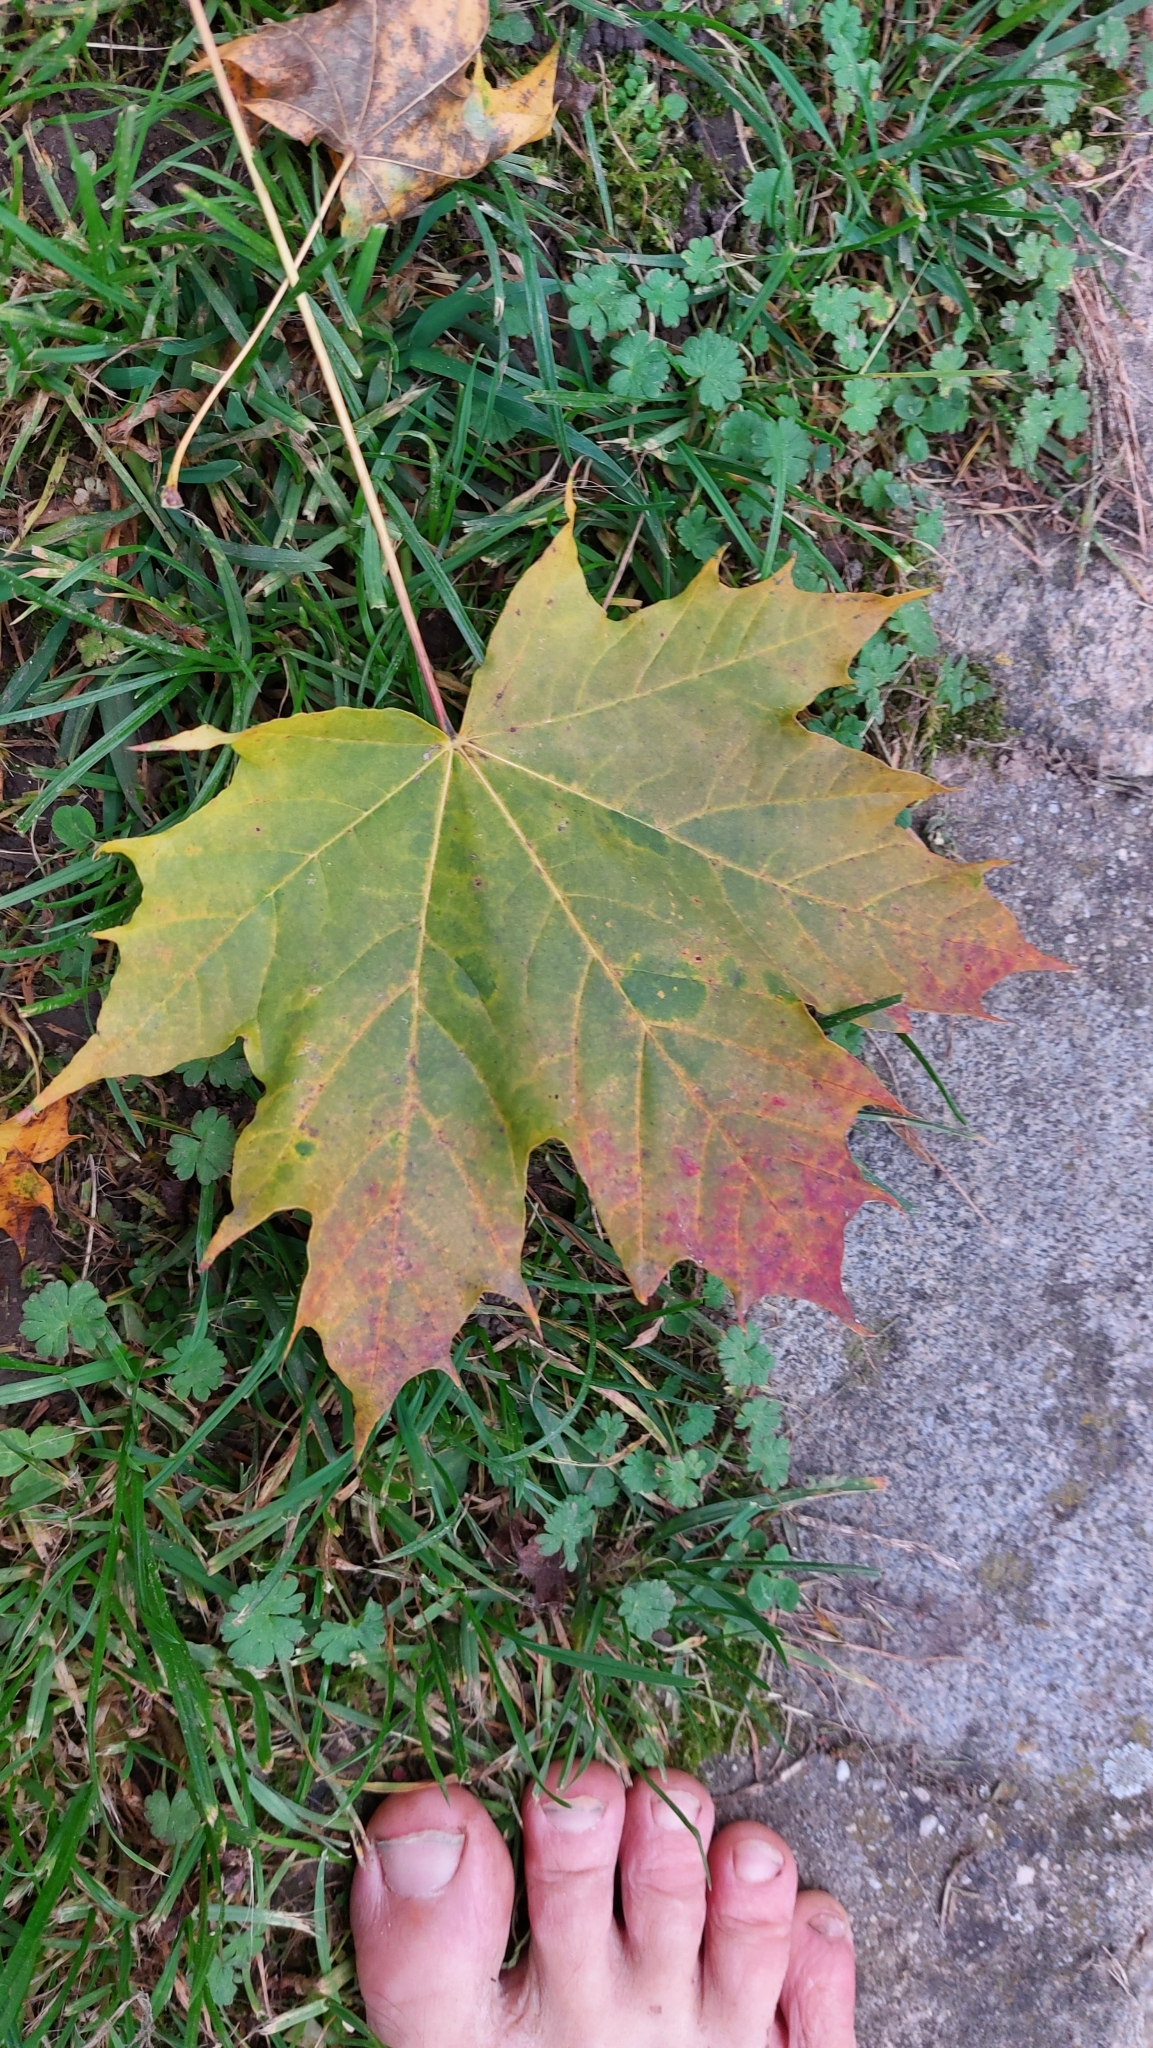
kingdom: Plantae
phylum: Tracheophyta
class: Magnoliopsida
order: Sapindales
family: Sapindaceae
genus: Acer
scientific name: Acer platanoides
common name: Norway maple
